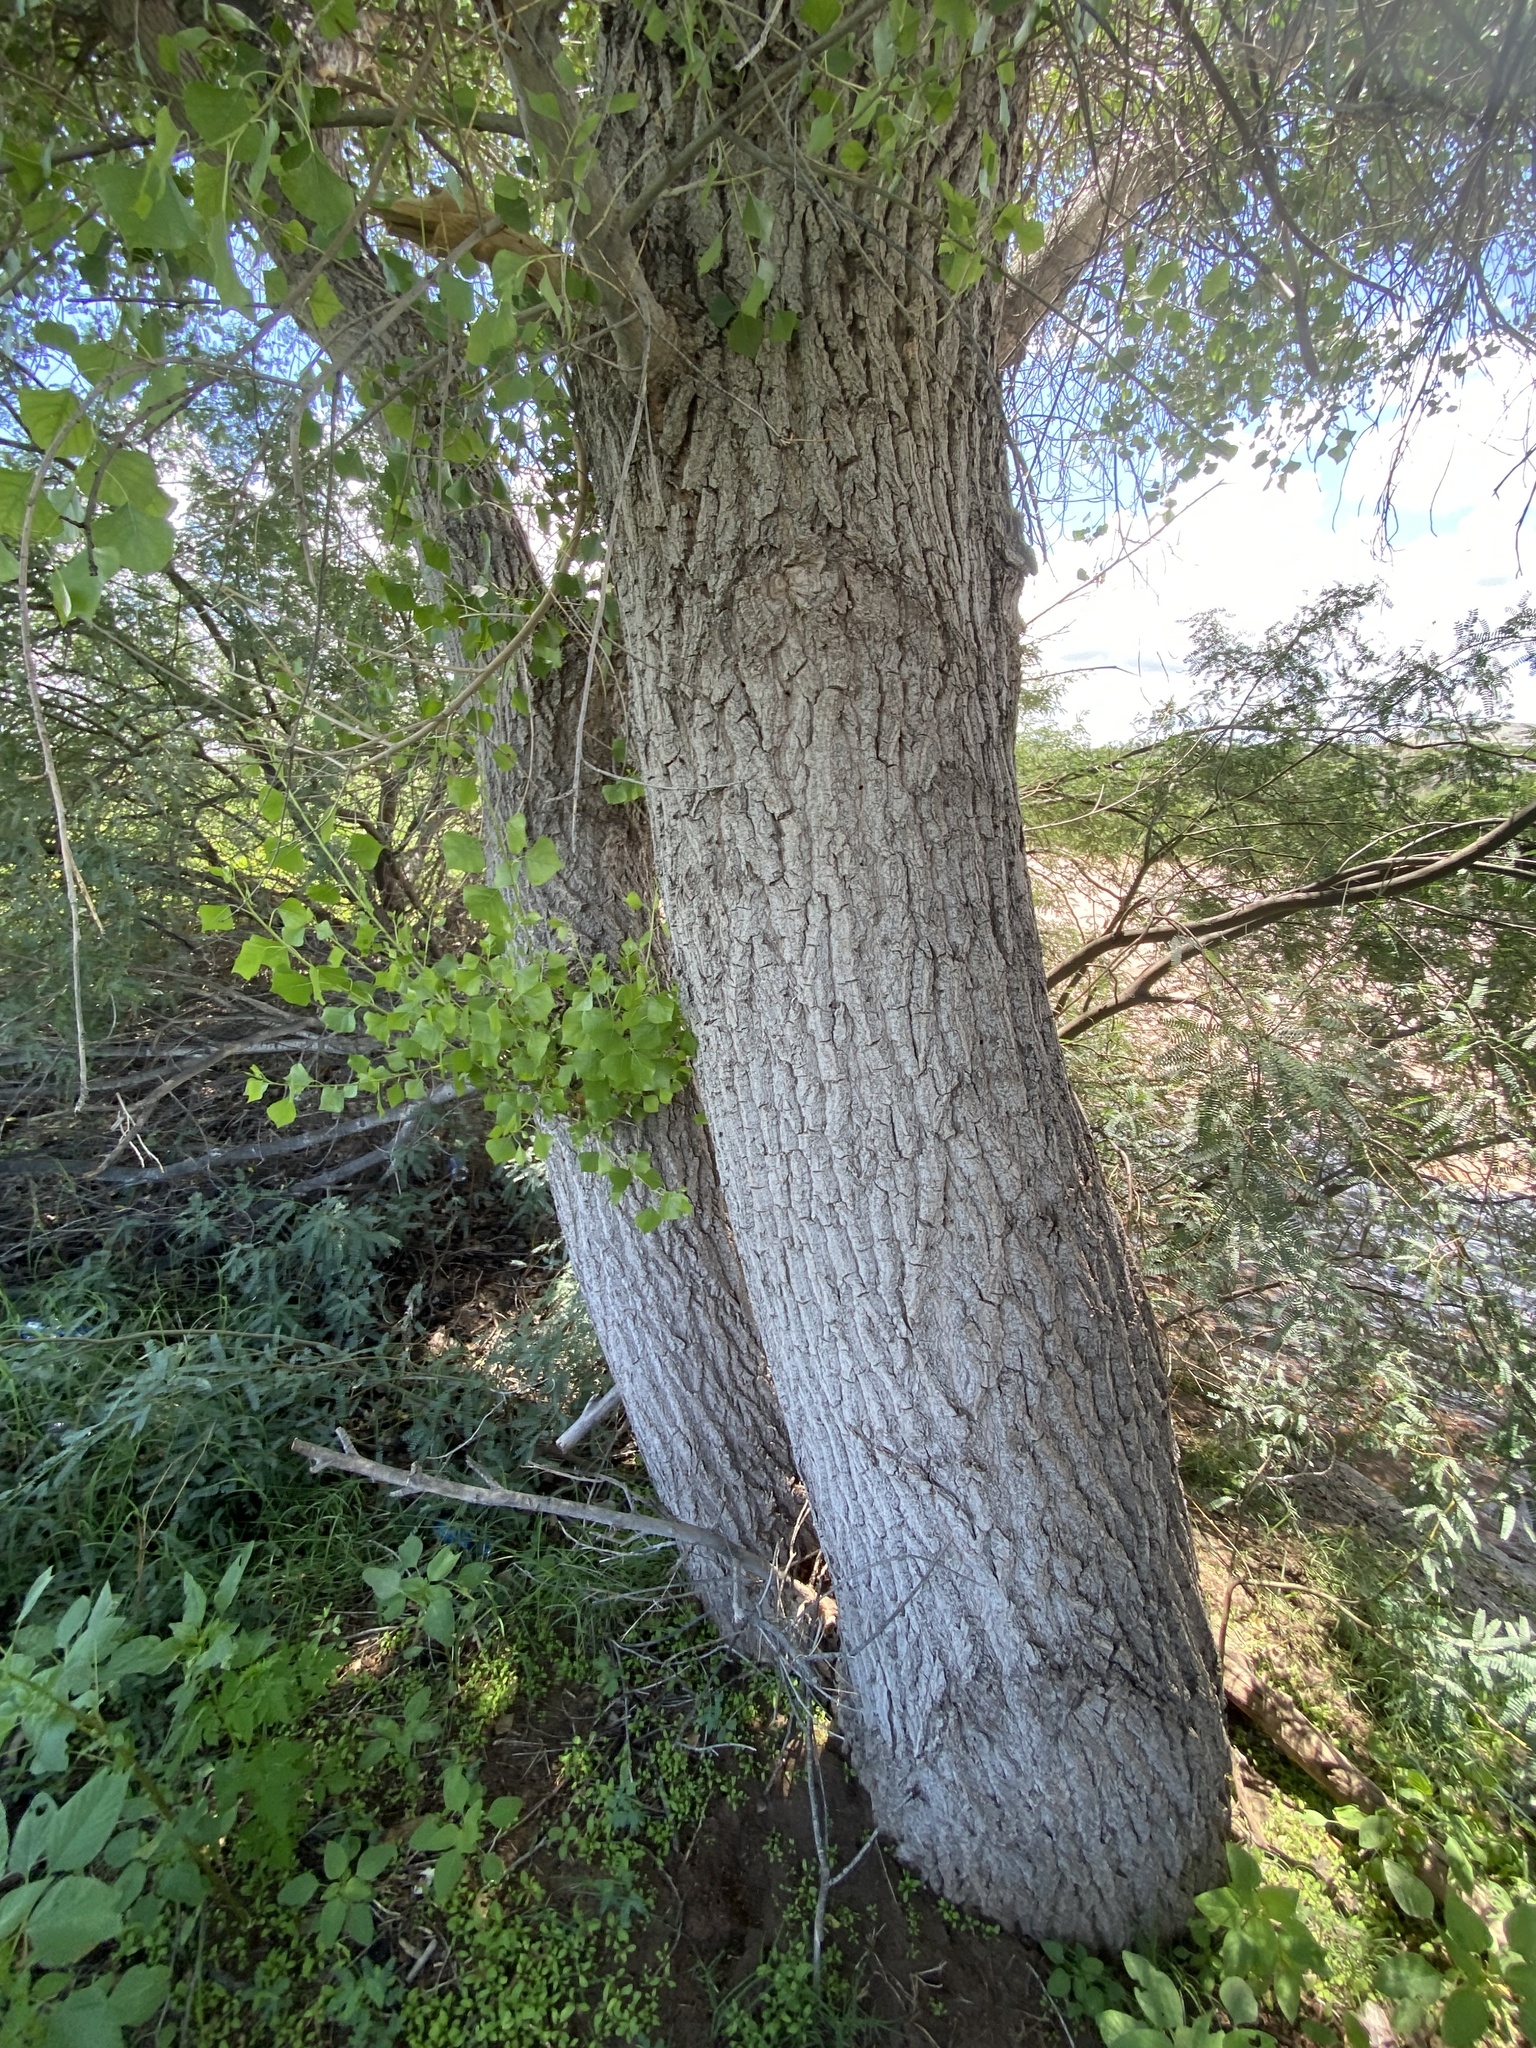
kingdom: Plantae
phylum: Tracheophyta
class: Magnoliopsida
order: Malpighiales
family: Salicaceae
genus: Populus
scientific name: Populus fremontii
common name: Fremont's cottonwood
